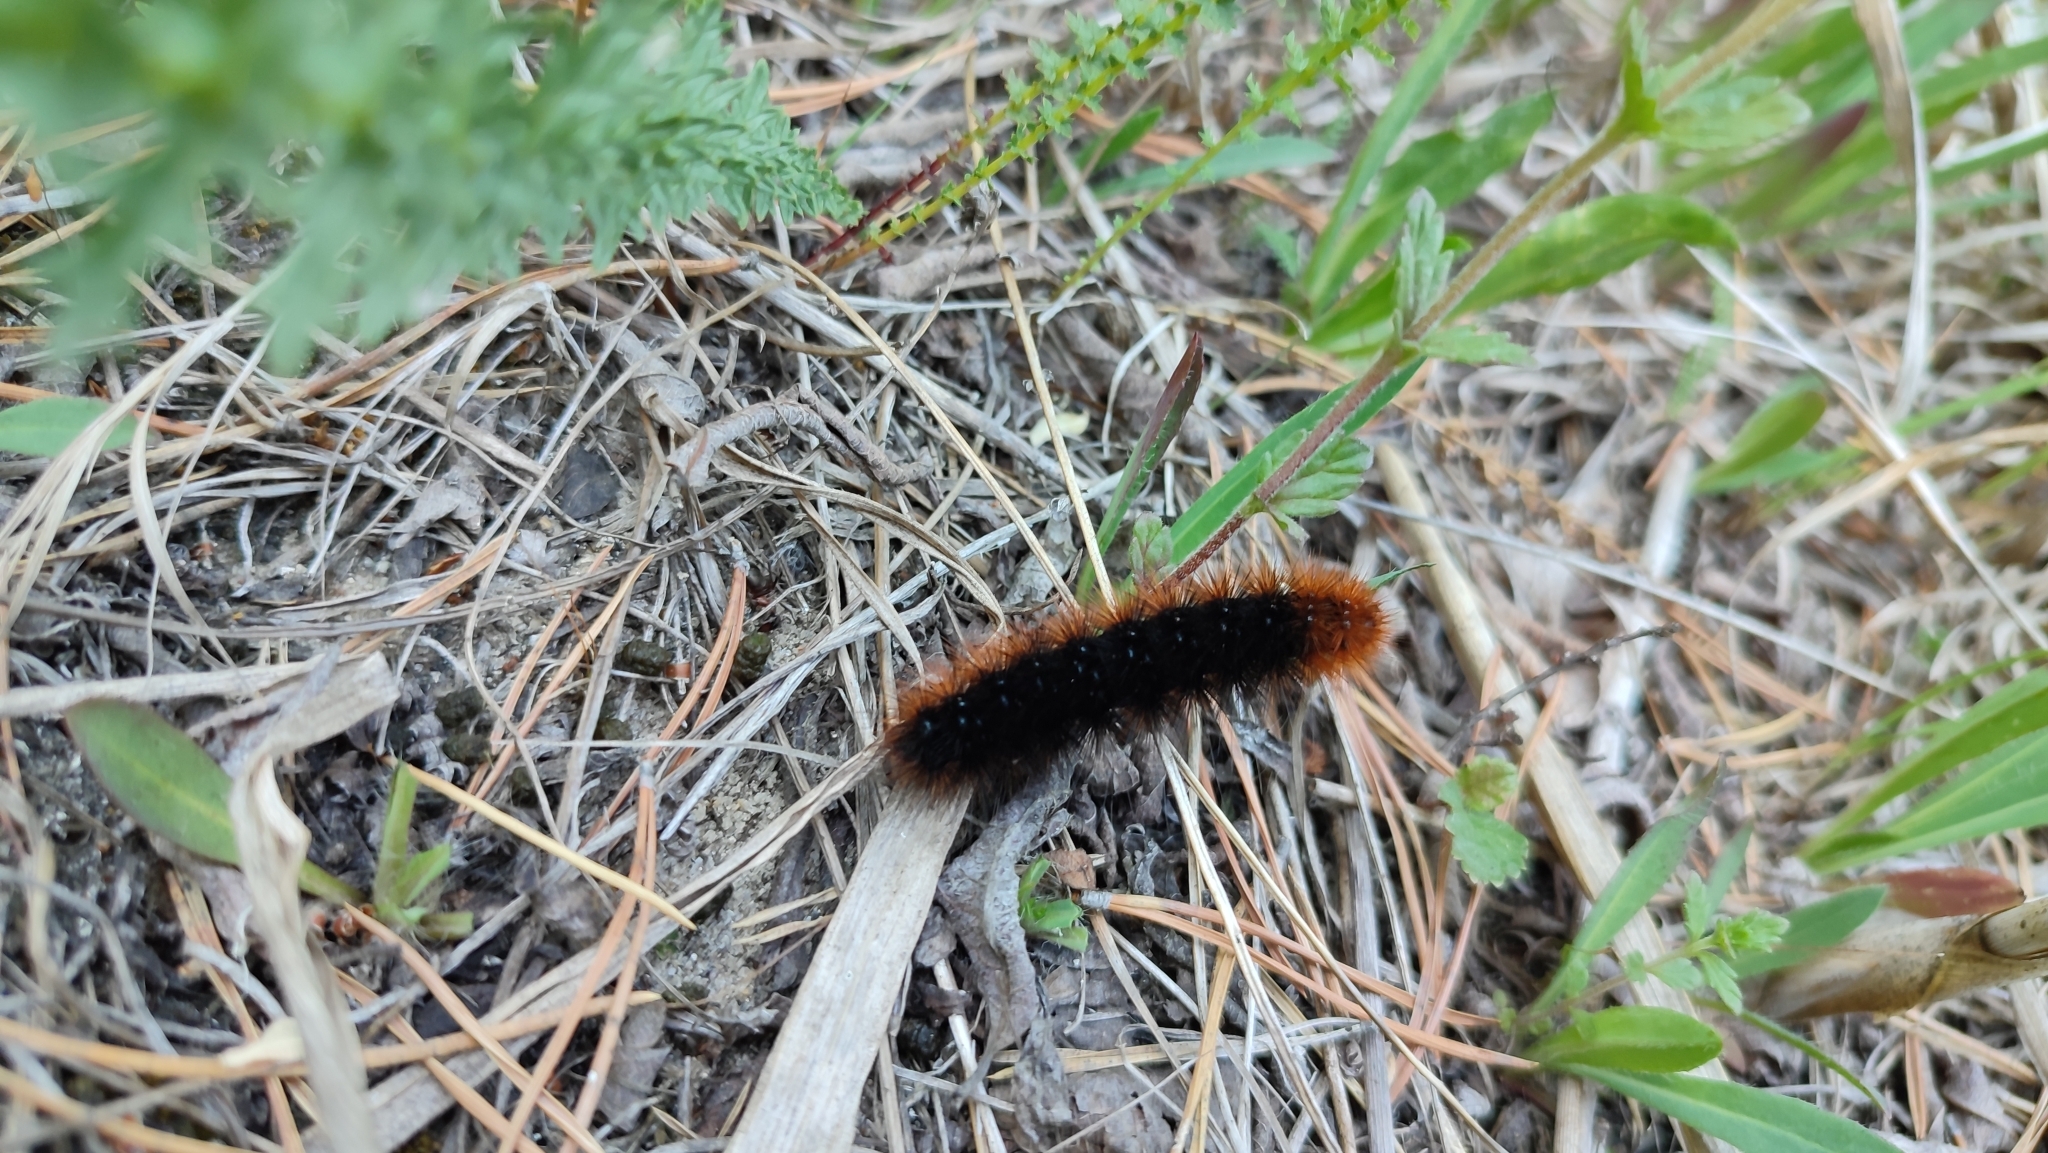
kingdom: Animalia
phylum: Arthropoda
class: Insecta
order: Lepidoptera
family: Erebidae
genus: Arctia
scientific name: Arctia caja
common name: Garden tiger
